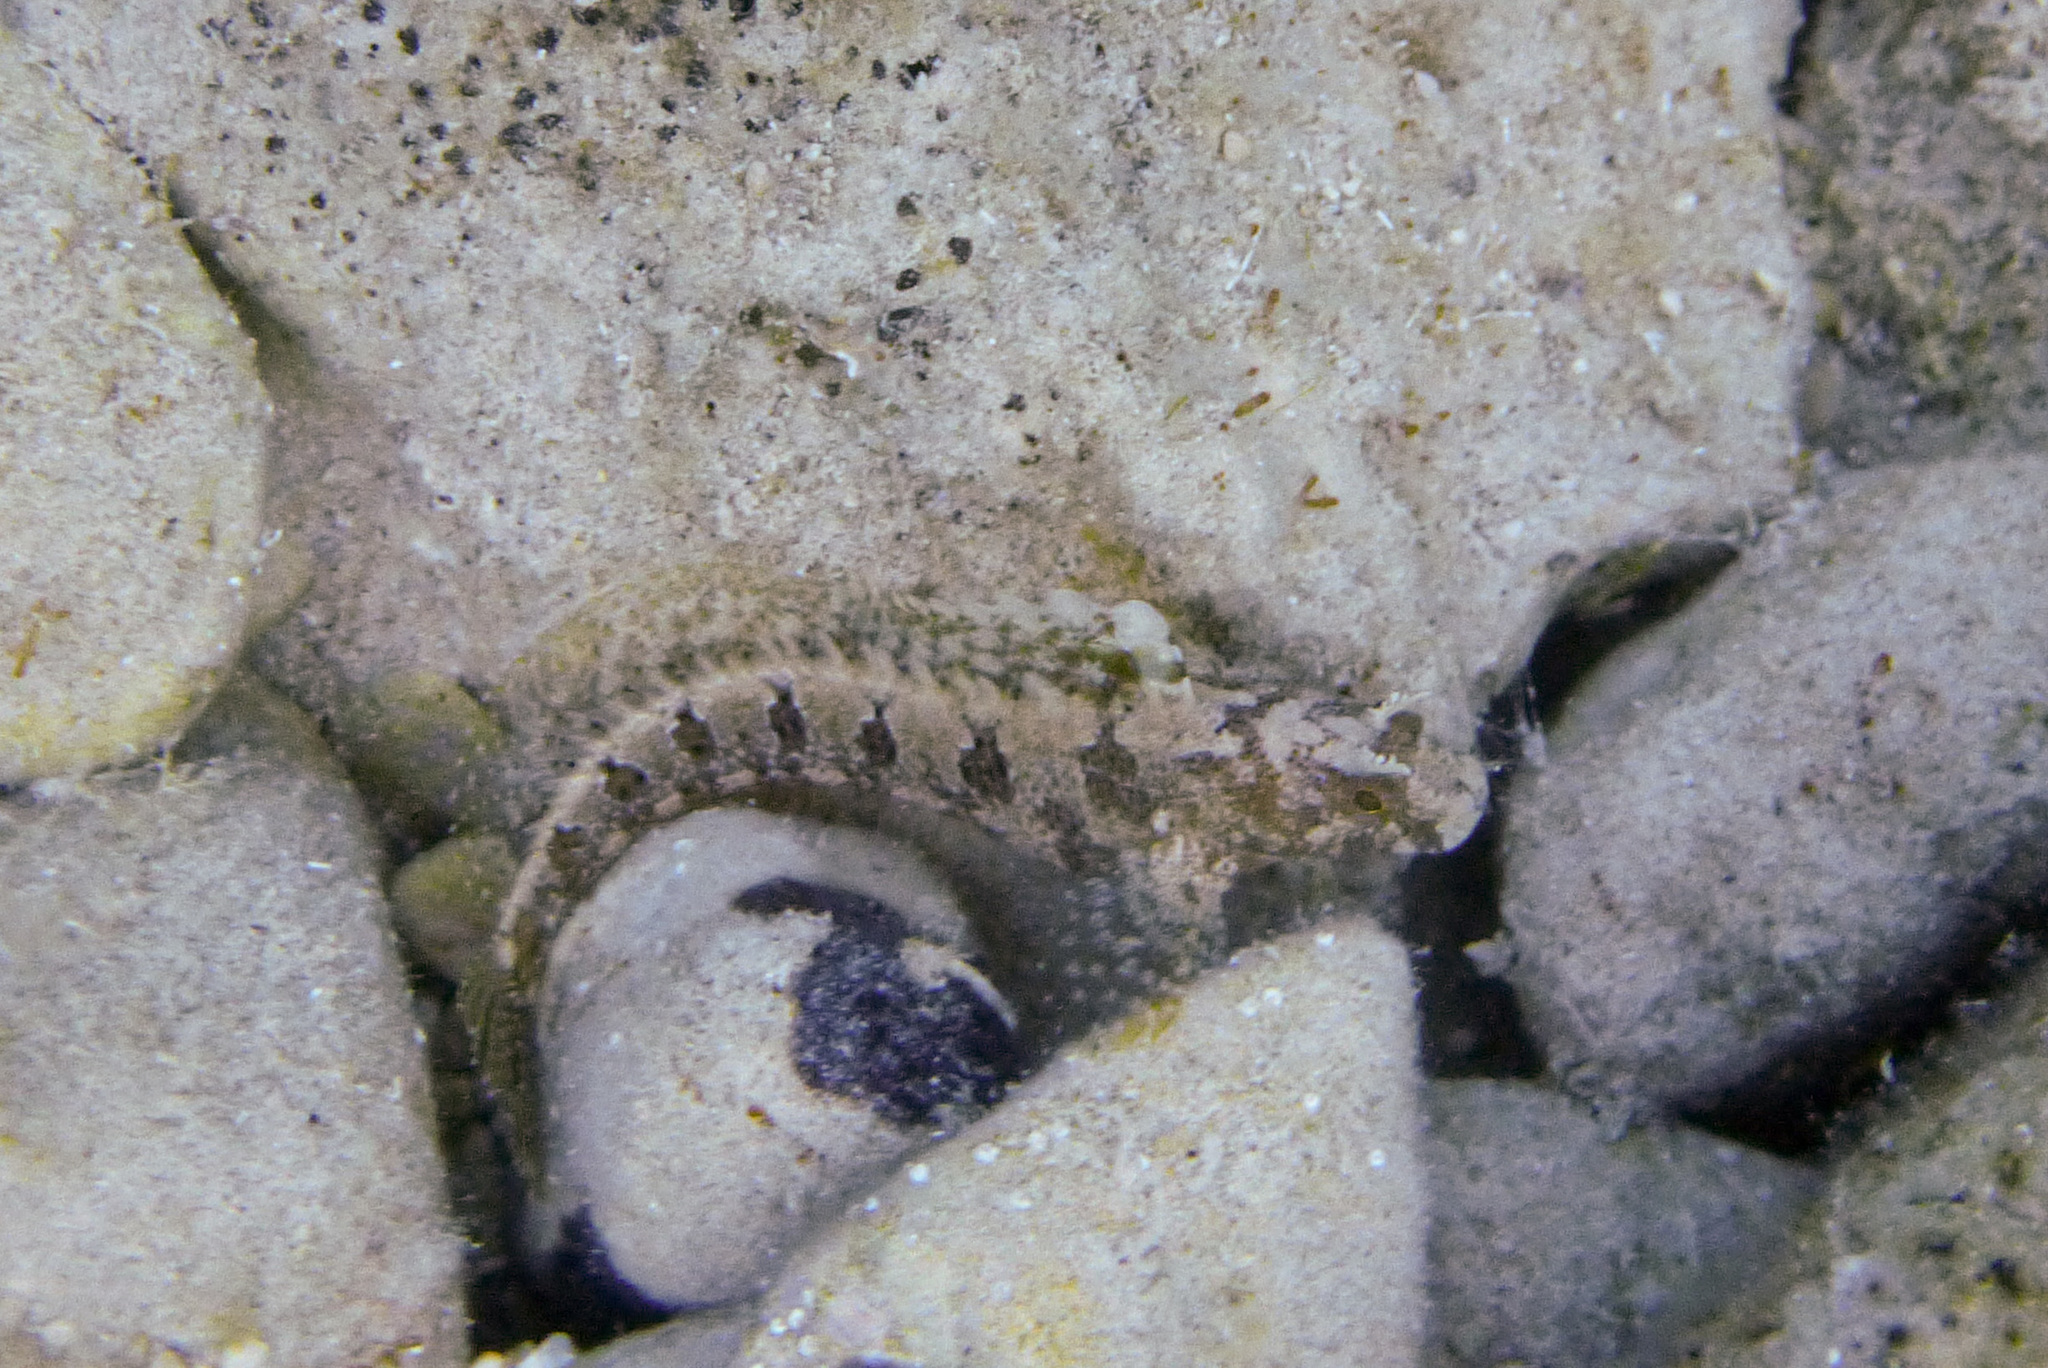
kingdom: Animalia
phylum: Chordata
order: Perciformes
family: Blenniidae
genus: Parablennius
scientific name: Parablennius tentacularis
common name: Tentacled blenny
